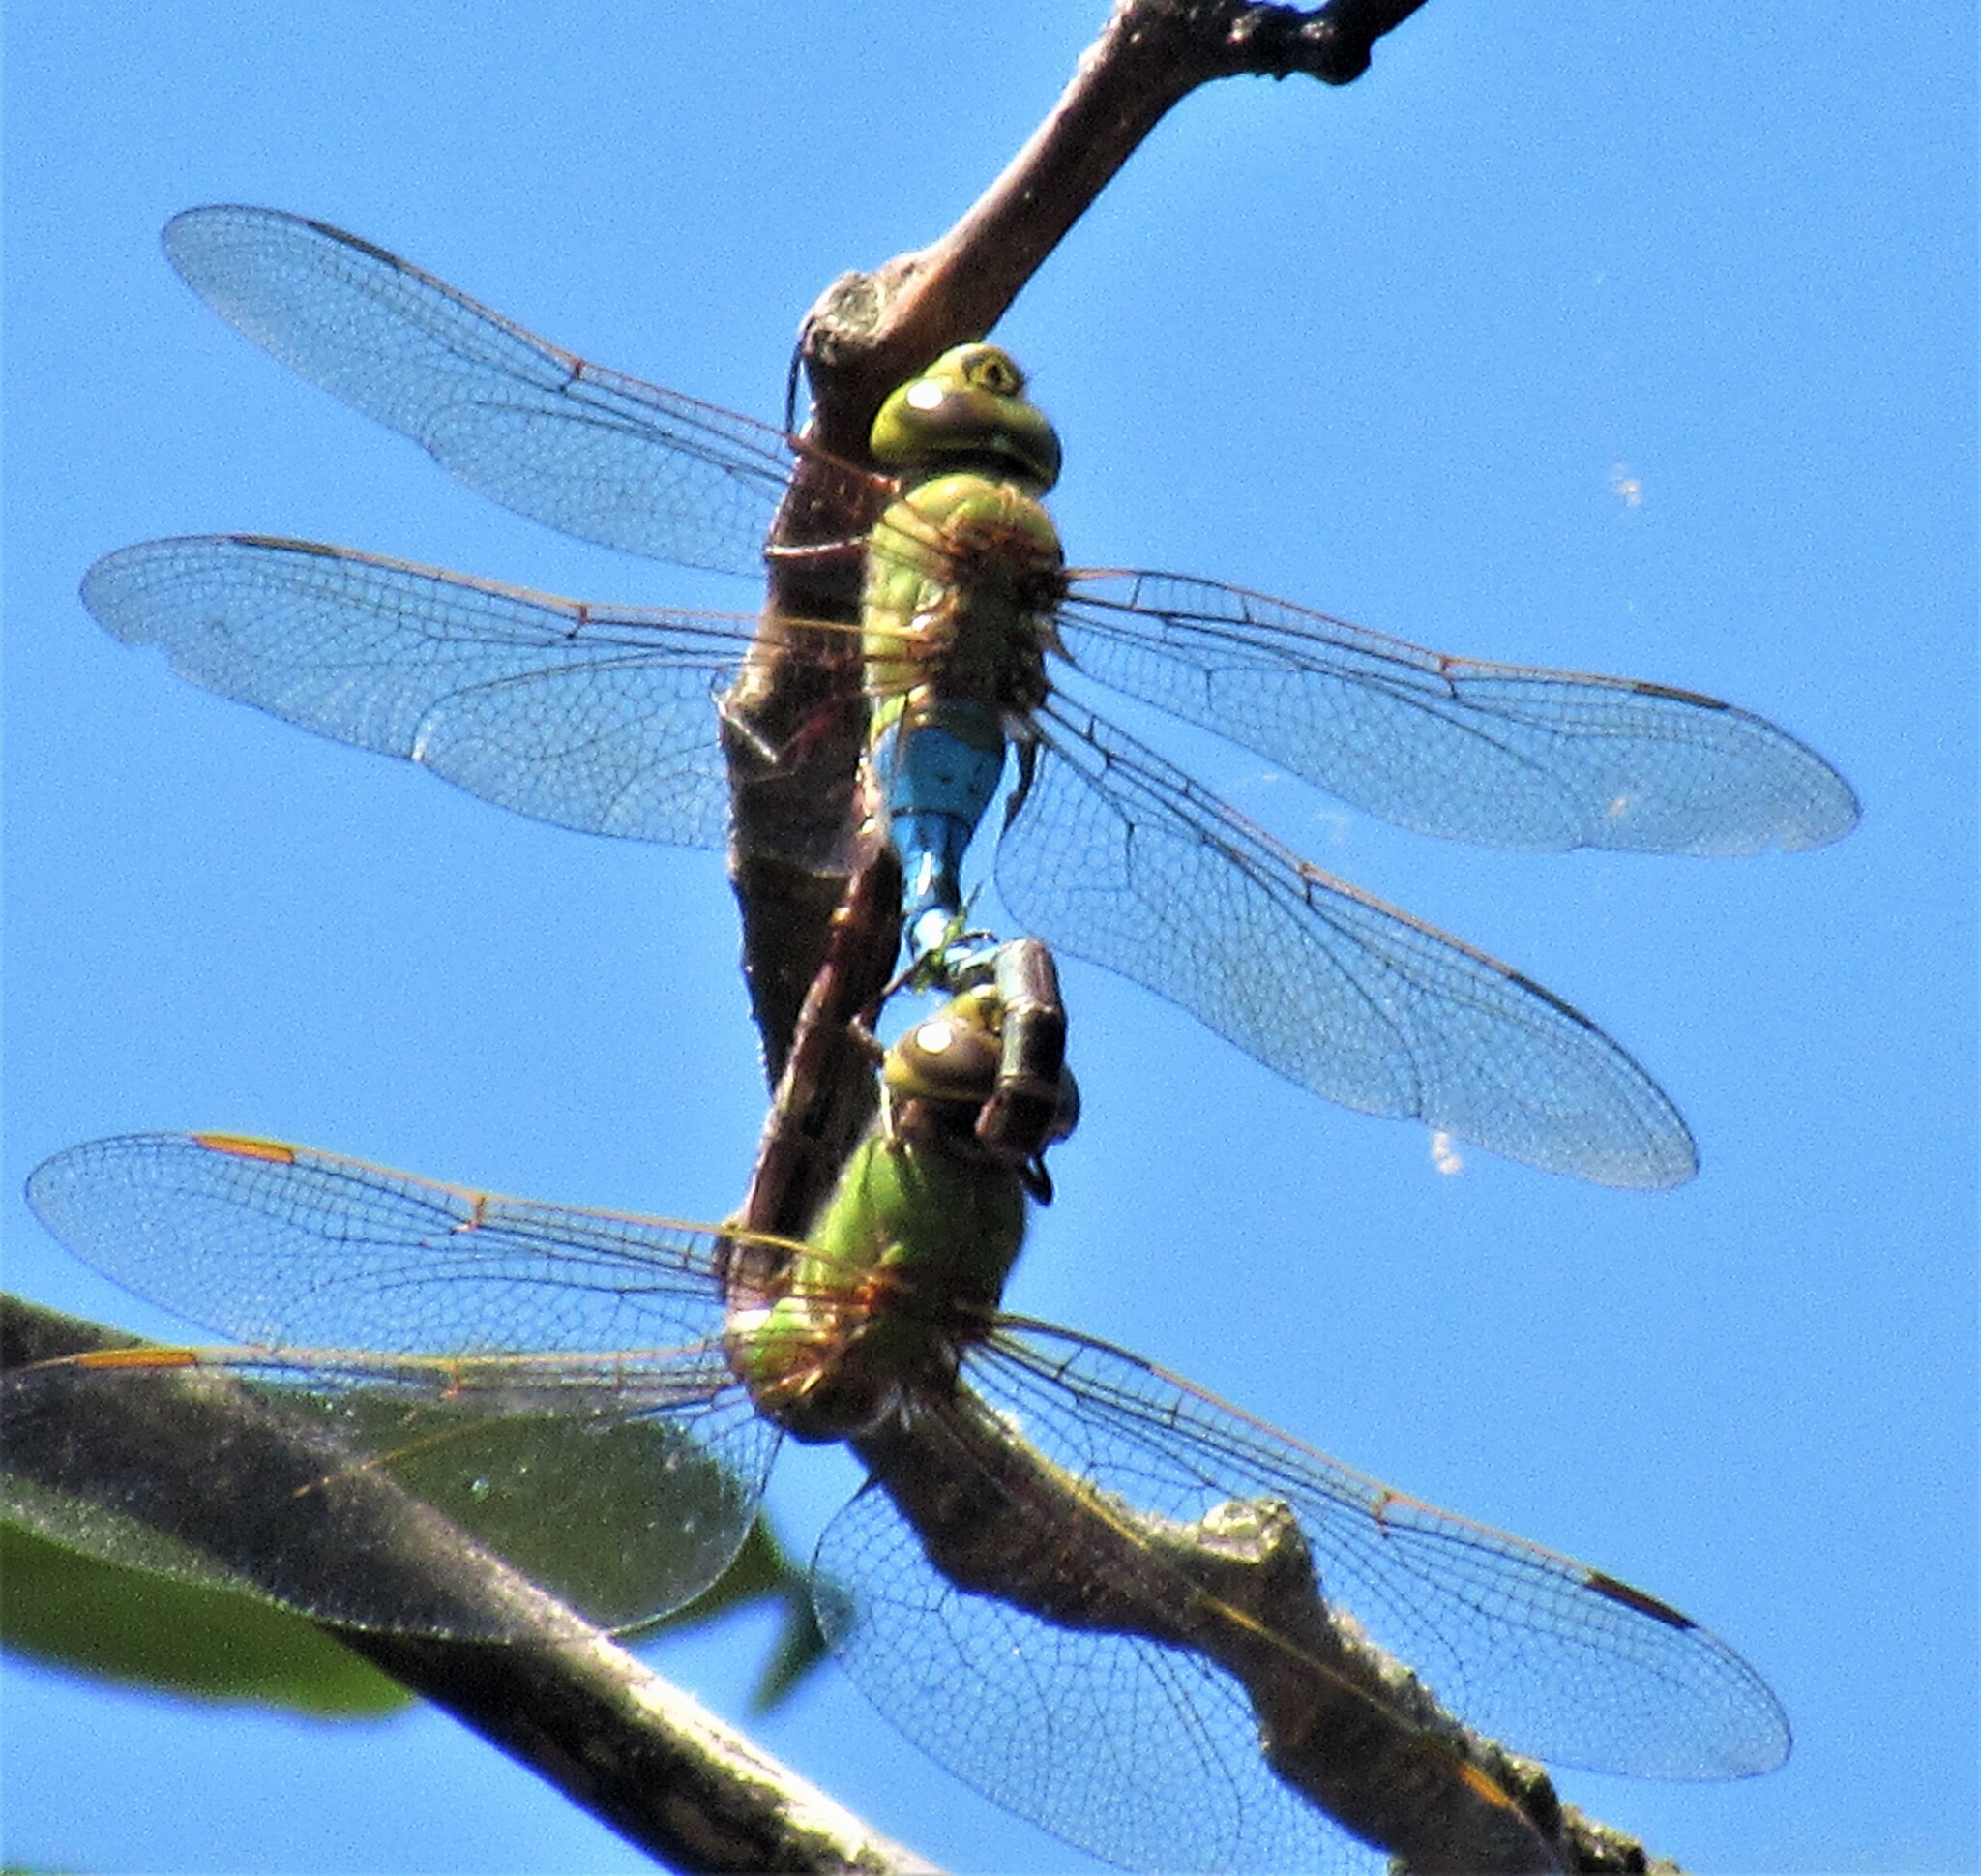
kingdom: Animalia
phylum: Arthropoda
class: Insecta
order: Odonata
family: Aeshnidae
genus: Anax
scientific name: Anax junius
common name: Common green darner
